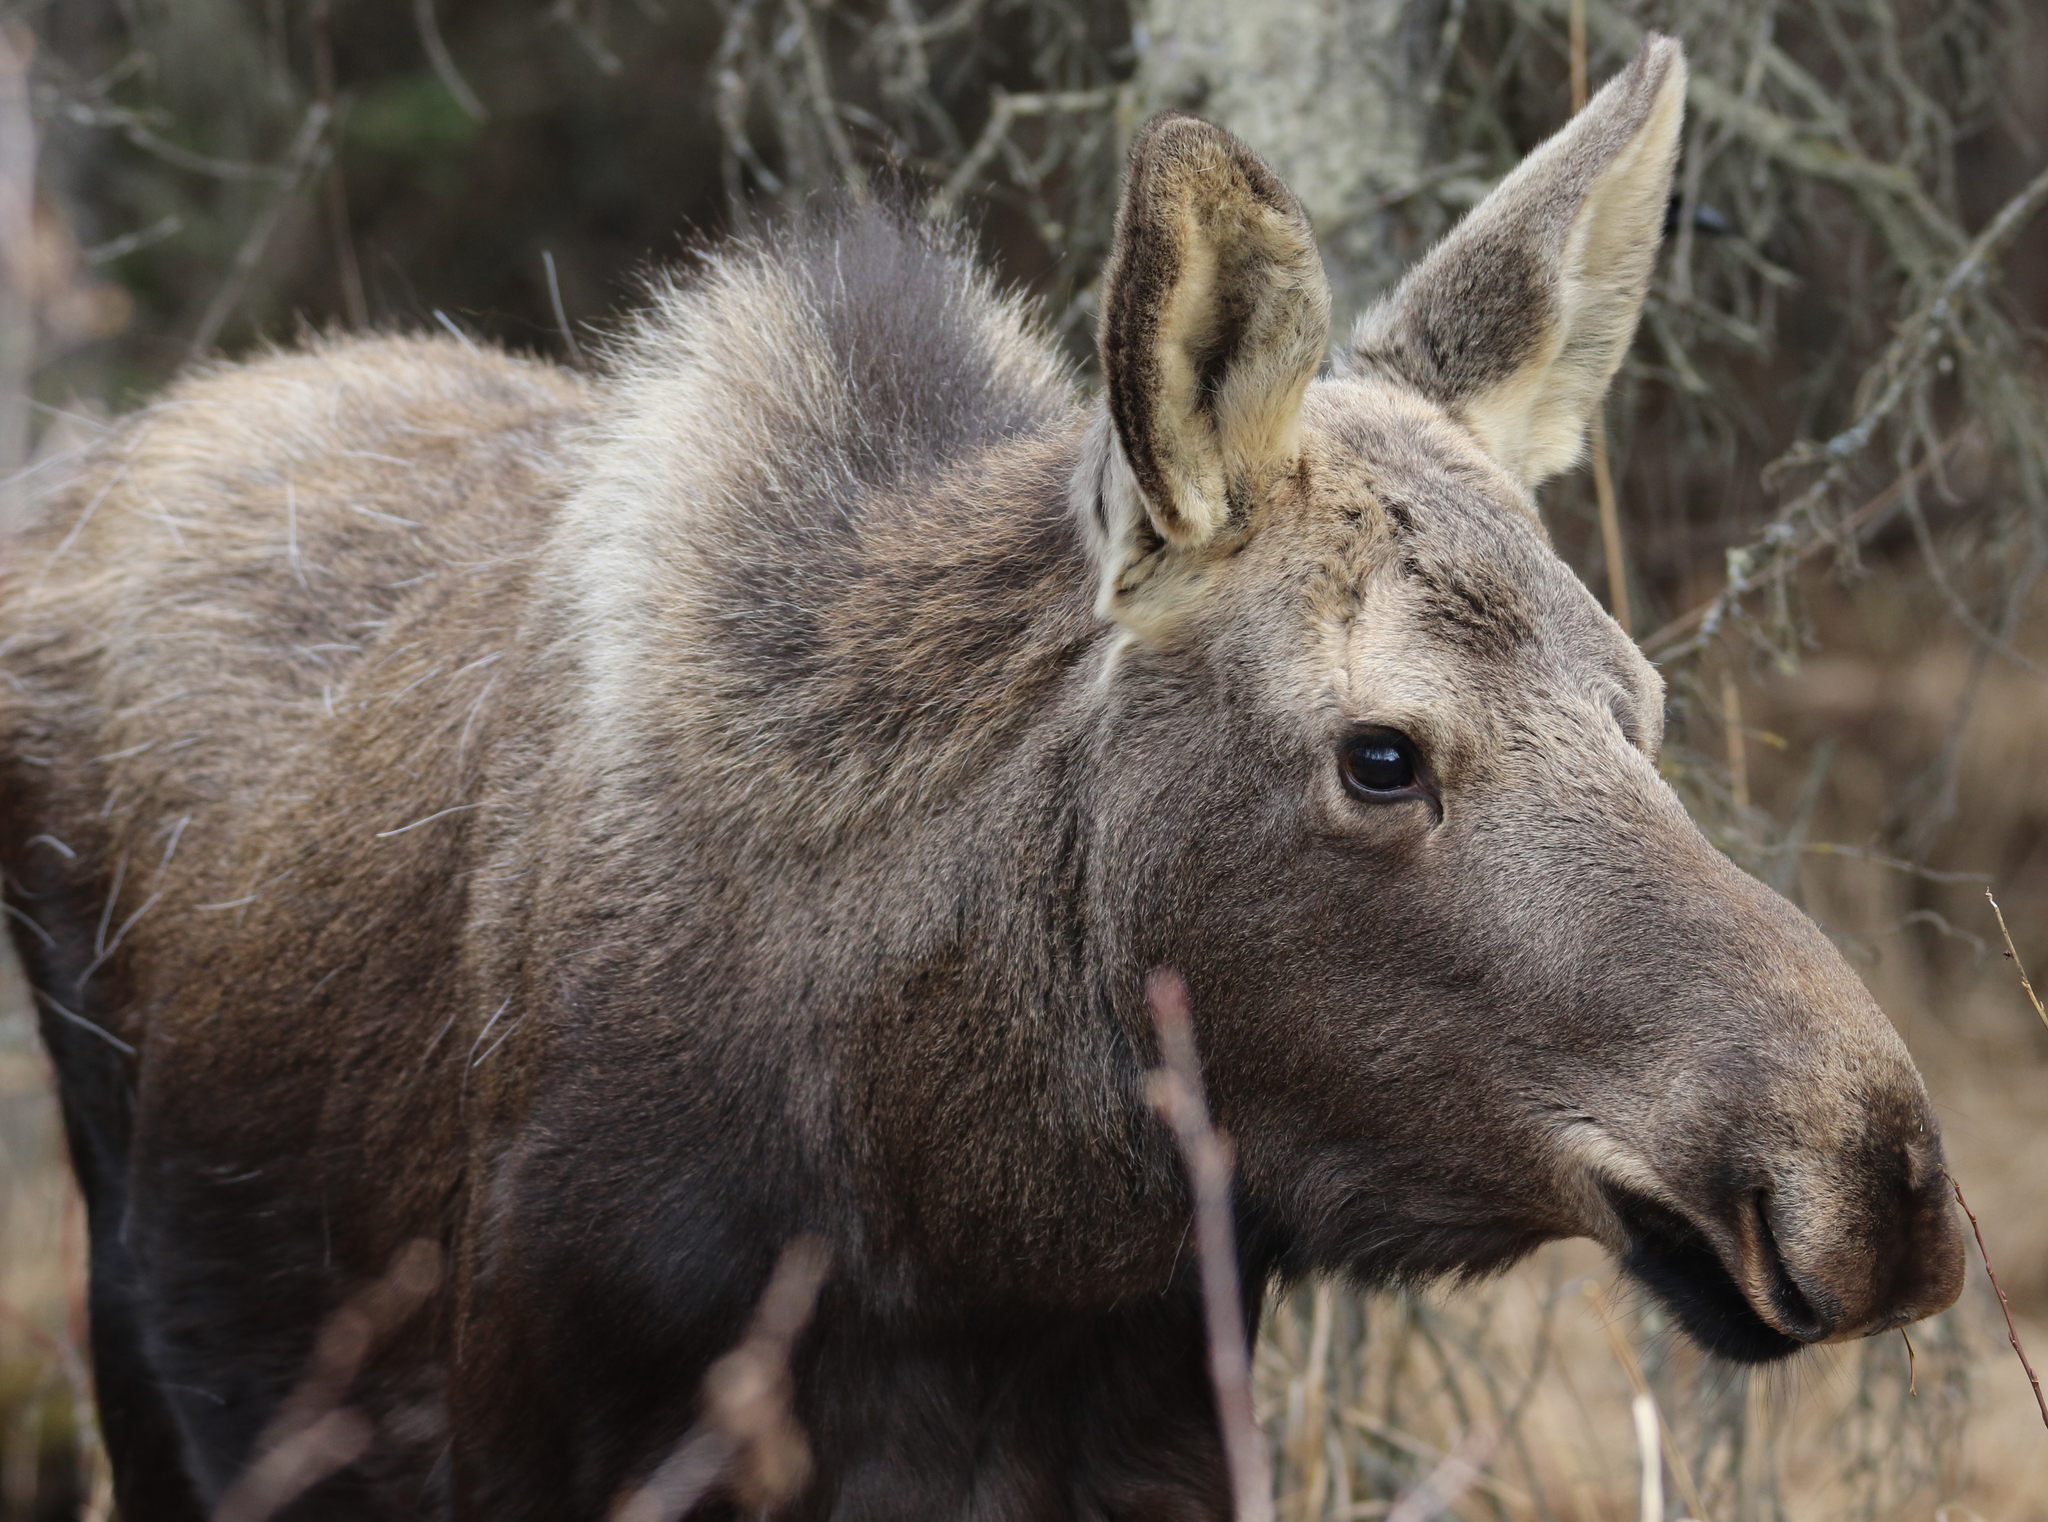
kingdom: Animalia
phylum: Chordata
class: Mammalia
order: Artiodactyla
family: Cervidae
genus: Alces
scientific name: Alces alces
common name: Moose
